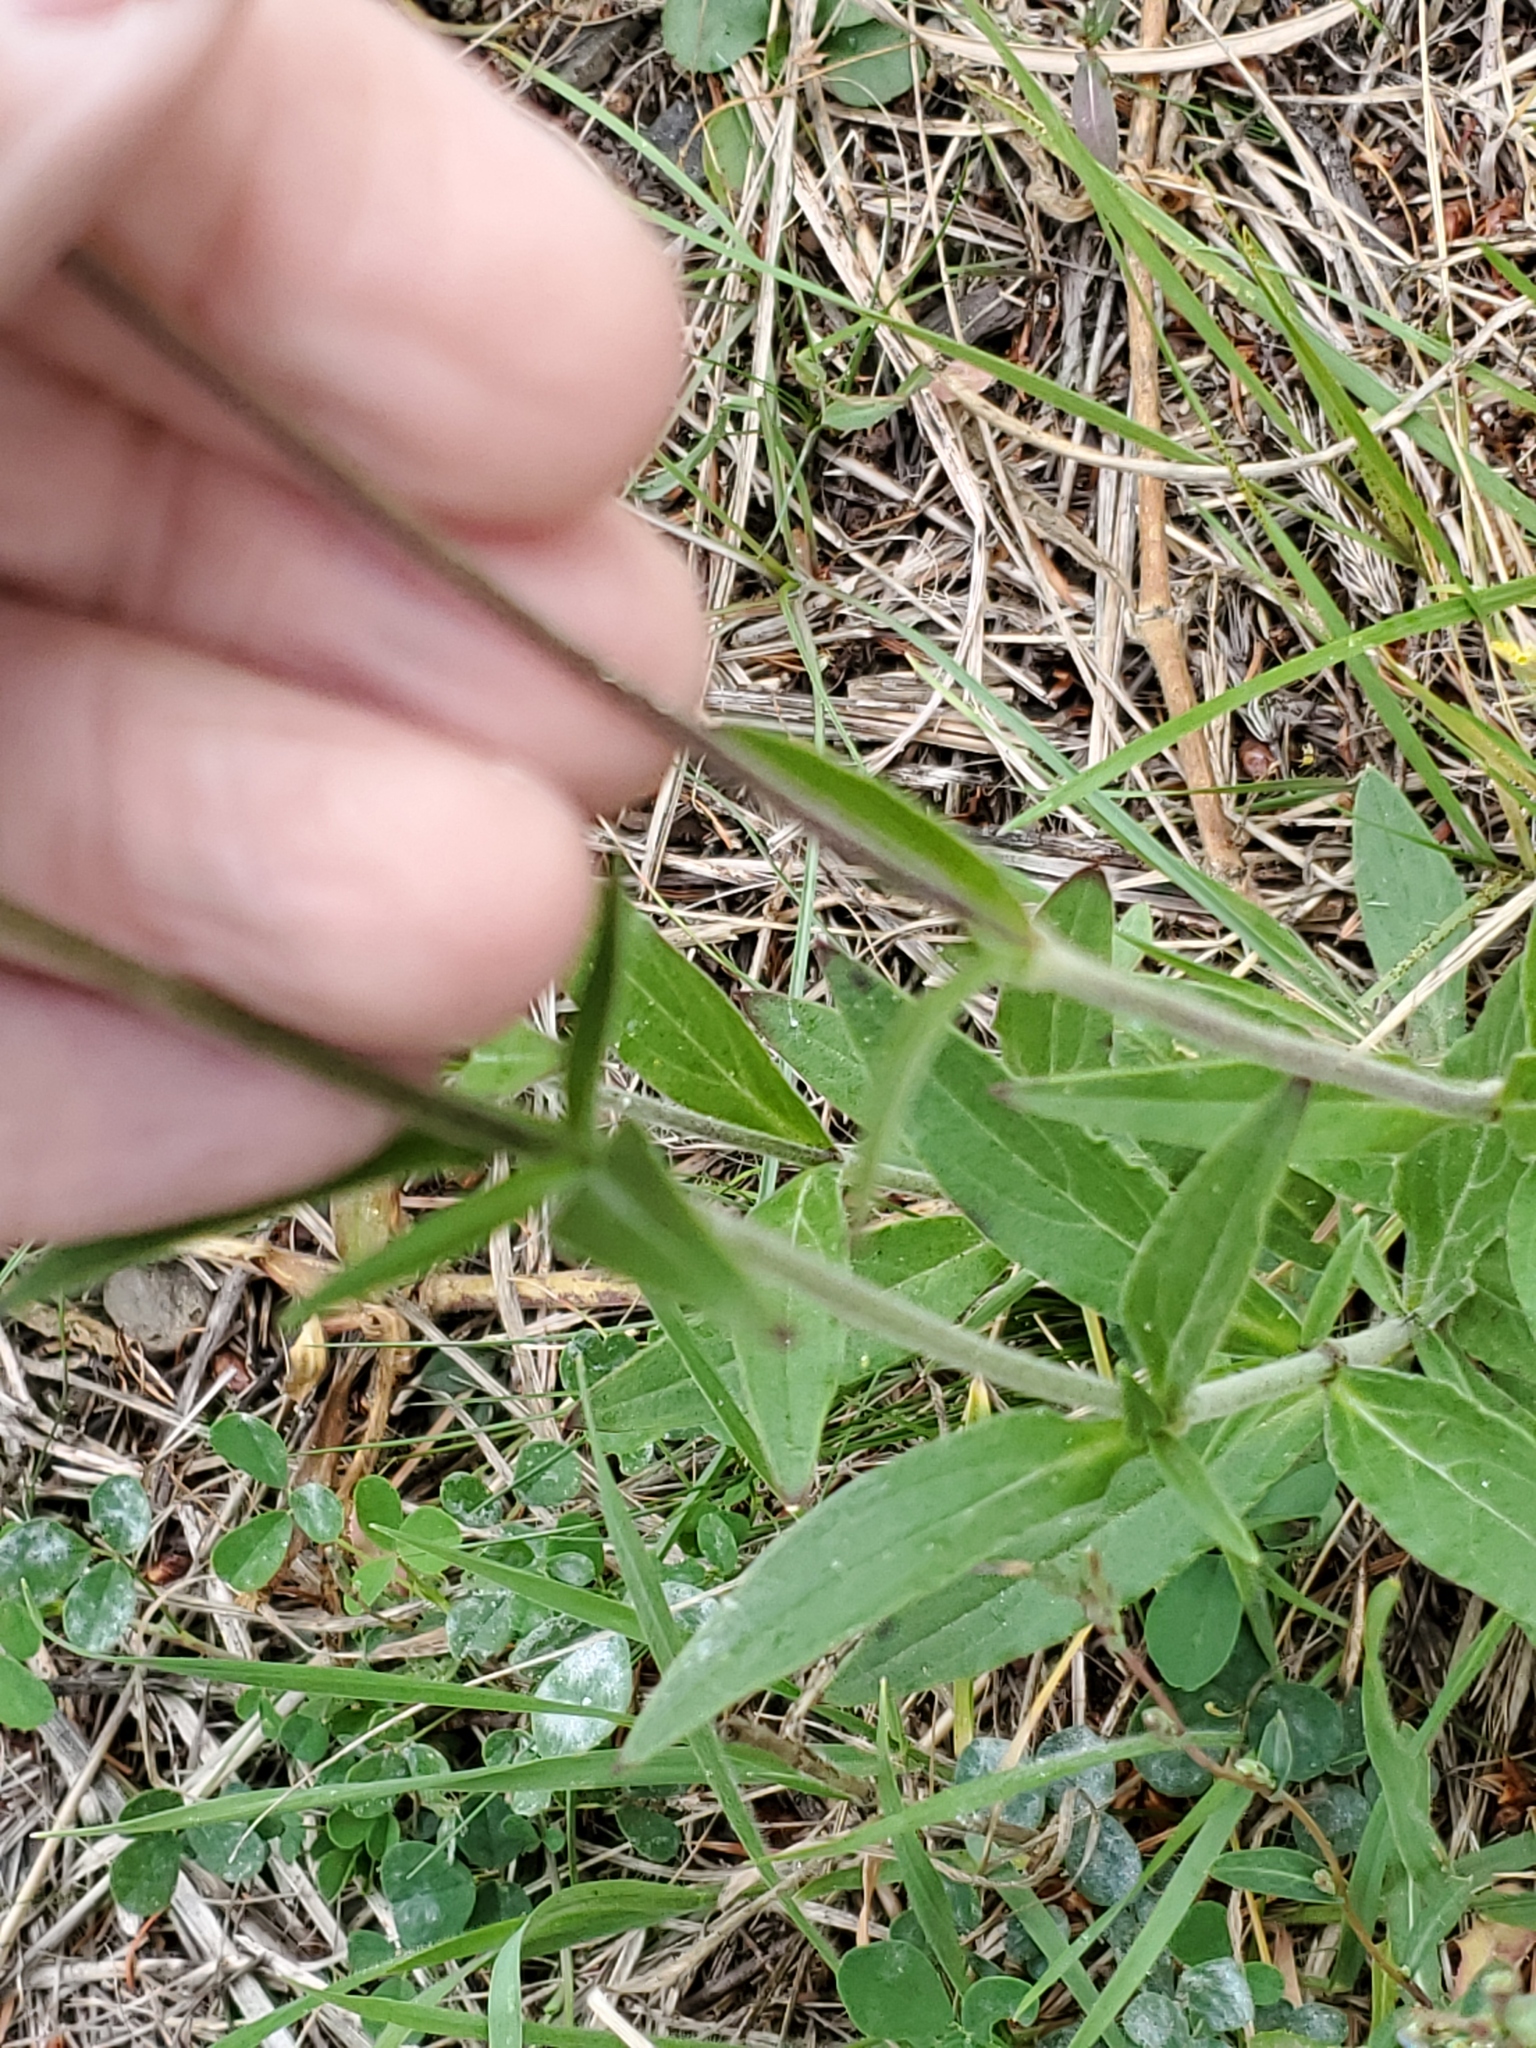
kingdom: Plantae
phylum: Tracheophyta
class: Magnoliopsida
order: Caryophyllales
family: Caryophyllaceae
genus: Silene
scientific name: Silene latifolia
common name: White campion
